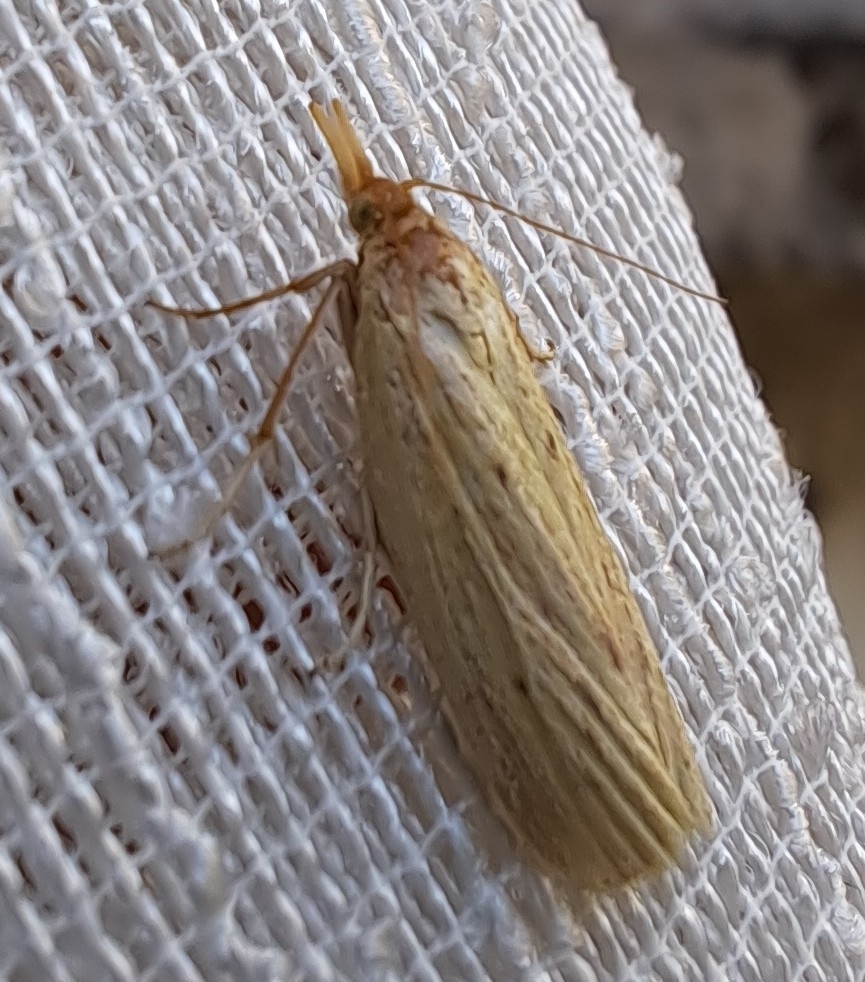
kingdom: Animalia
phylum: Arthropoda
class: Insecta
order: Lepidoptera
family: Pyralidae
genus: Ematheudes
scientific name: Ematheudes punctellus
